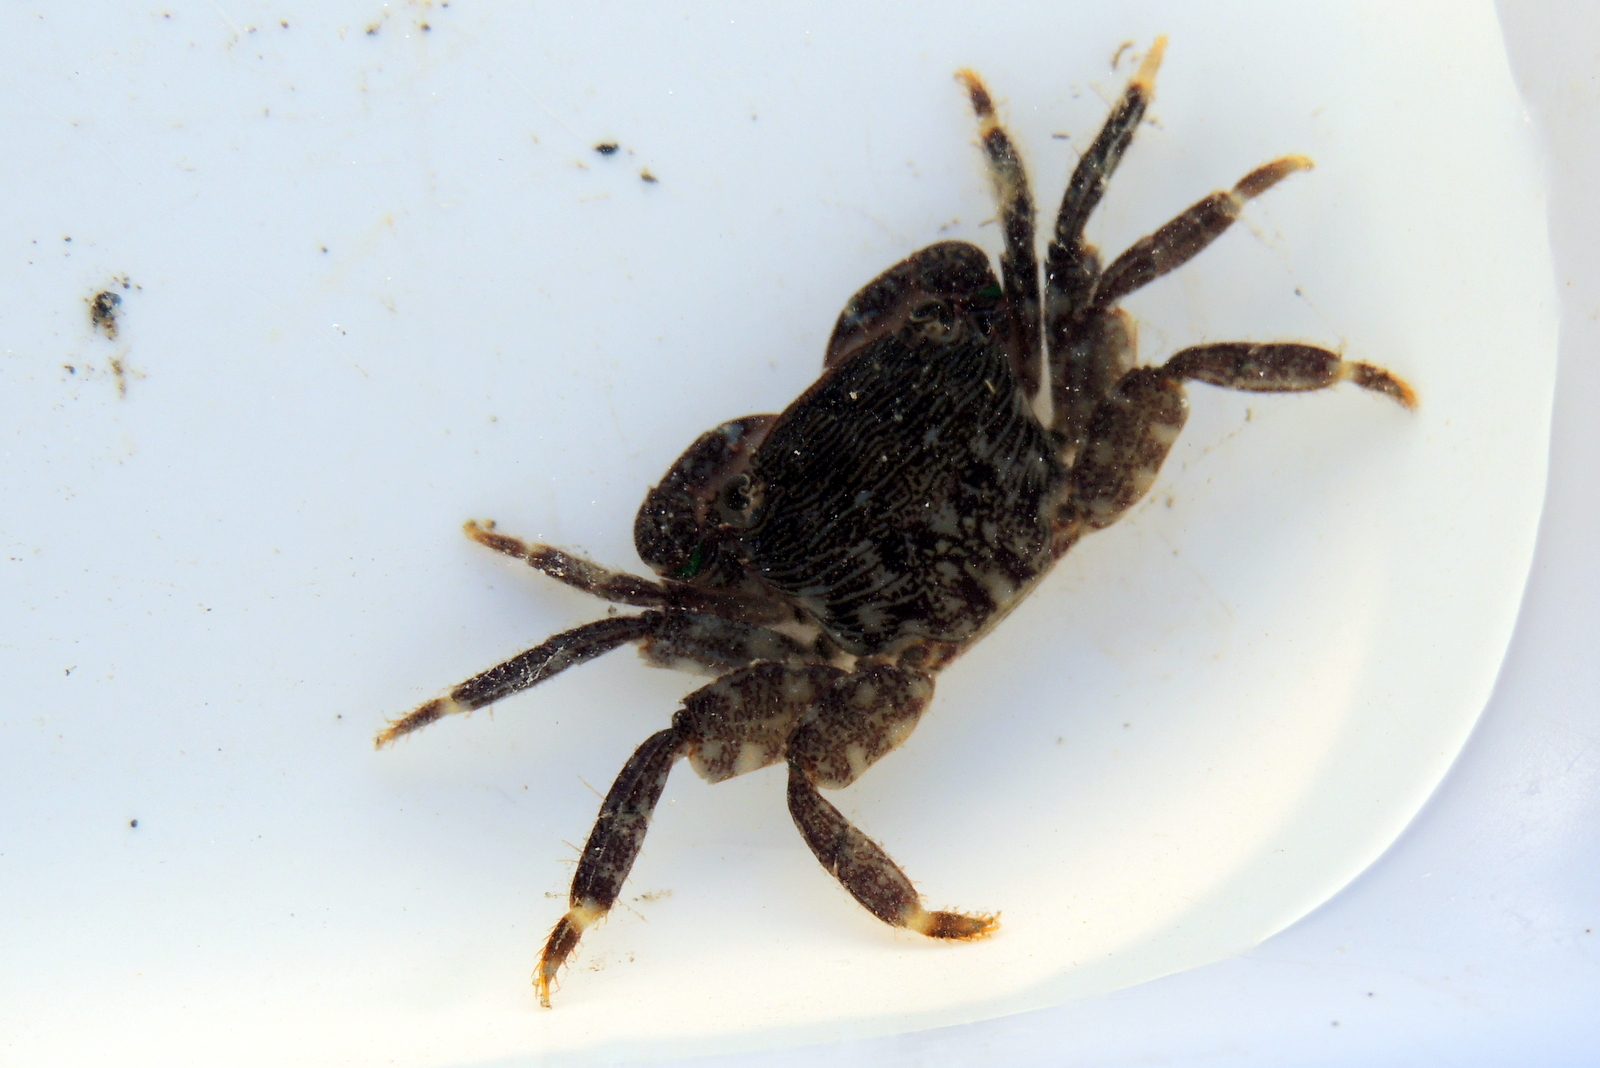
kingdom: Animalia
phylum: Arthropoda
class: Malacostraca
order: Decapoda
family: Grapsidae
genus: Pachygrapsus
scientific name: Pachygrapsus crassipes
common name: Striped shore crab
